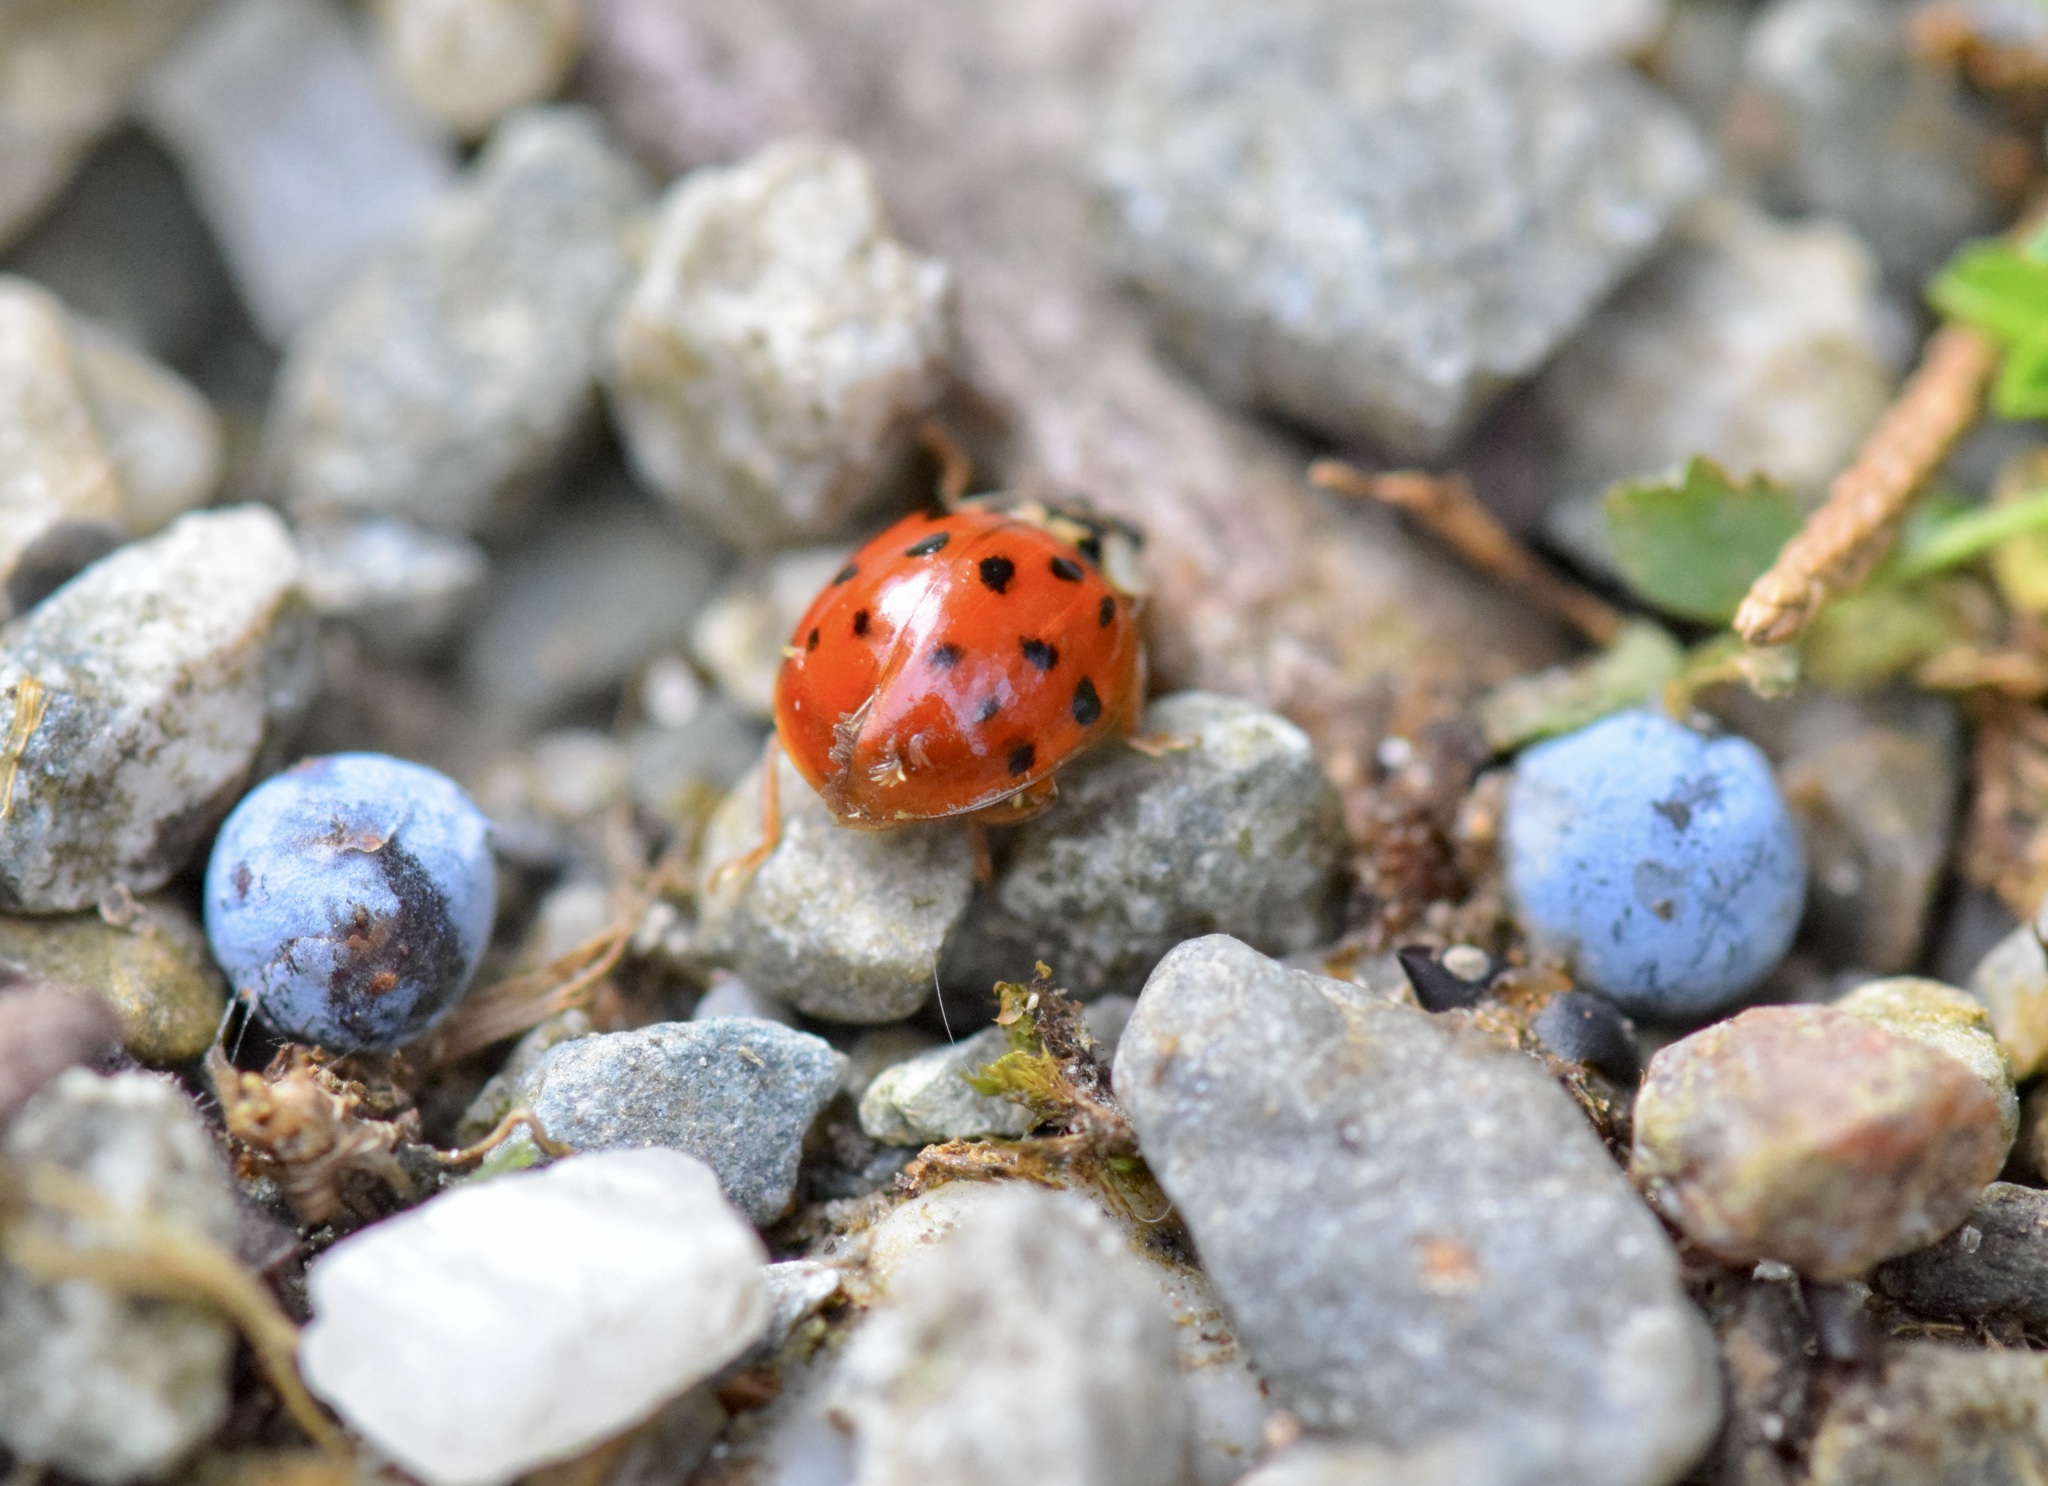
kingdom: Animalia
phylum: Arthropoda
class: Insecta
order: Coleoptera
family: Coccinellidae
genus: Harmonia
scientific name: Harmonia axyridis
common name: Harlequin ladybird
